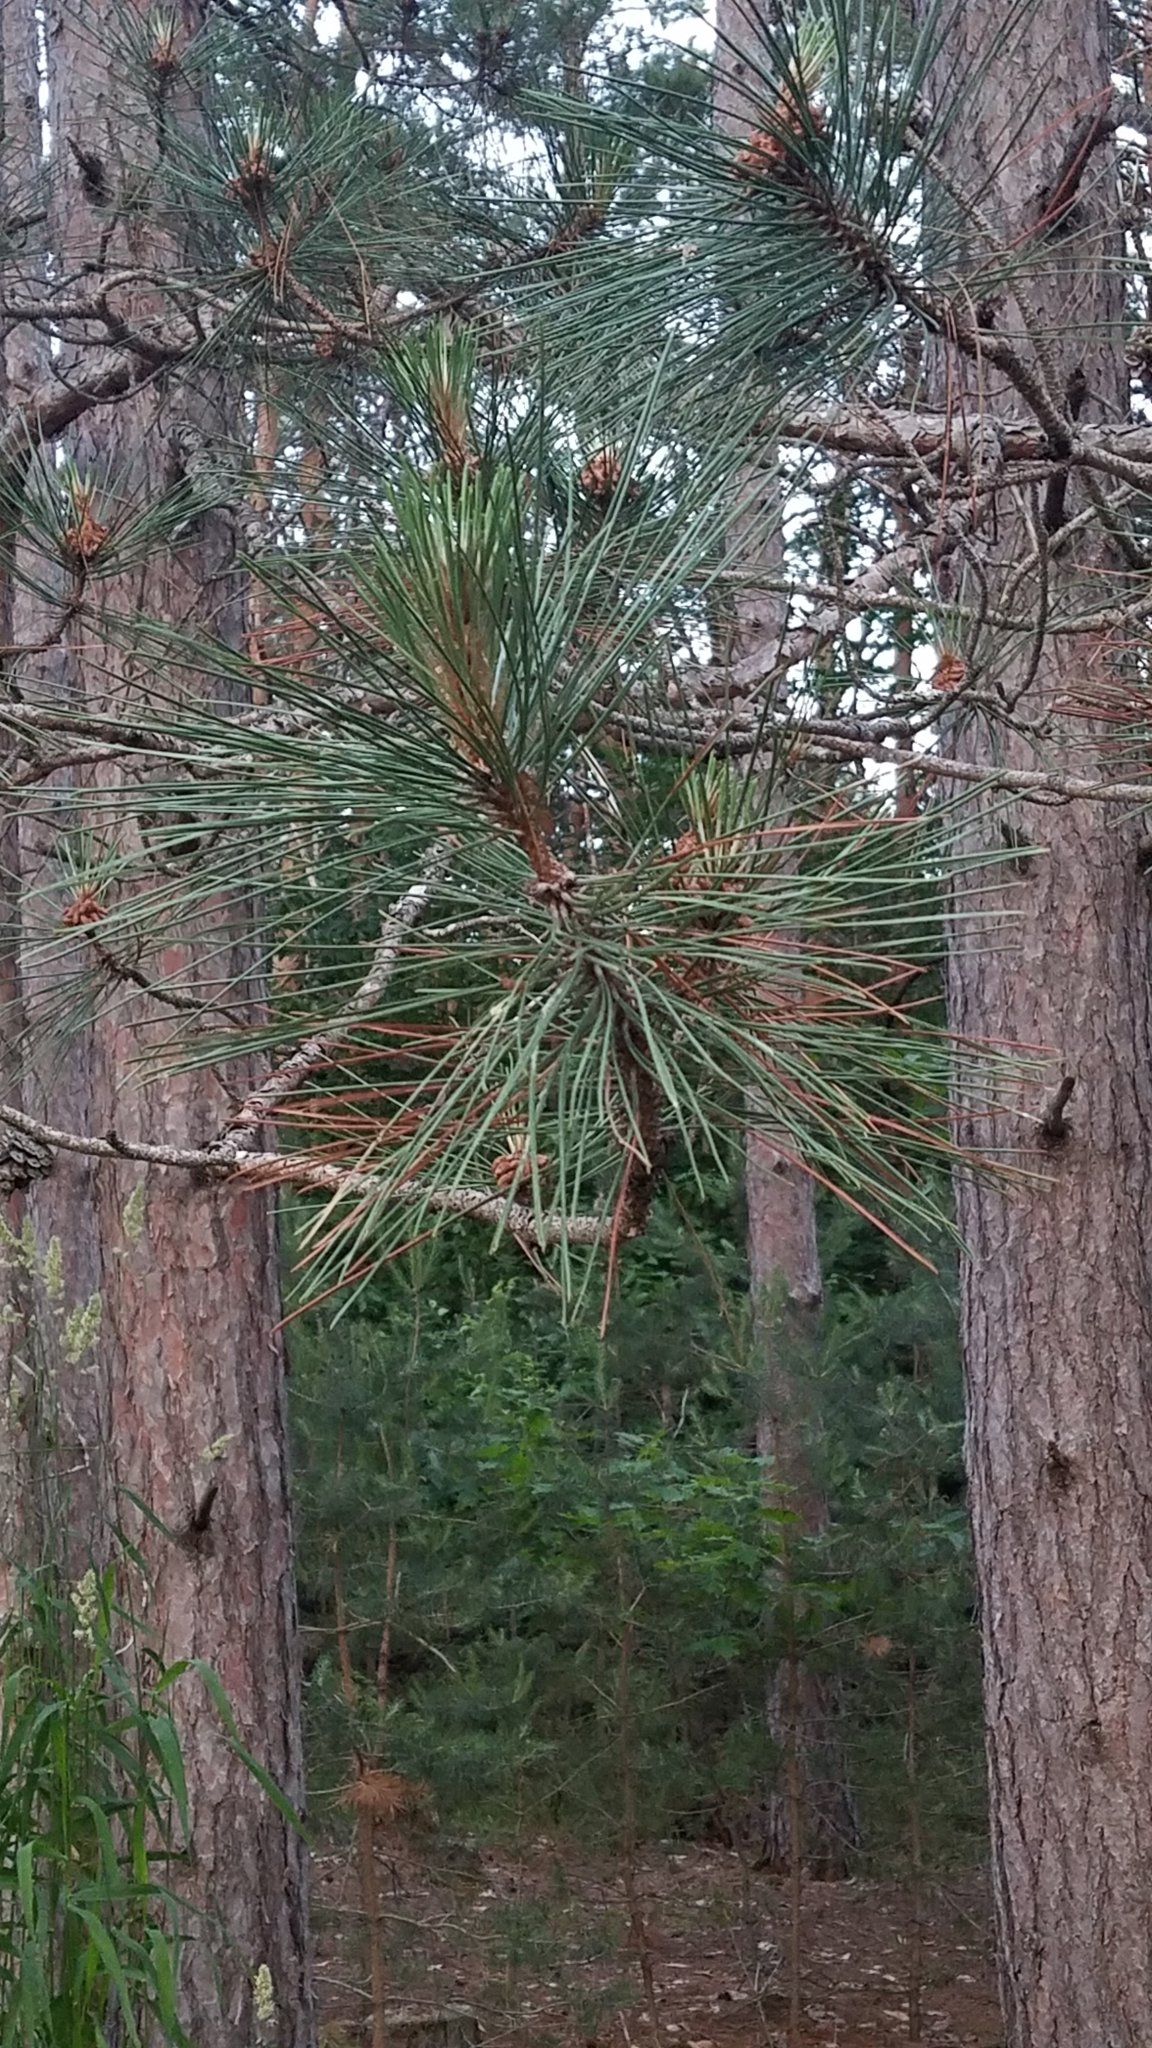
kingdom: Plantae
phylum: Tracheophyta
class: Pinopsida
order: Pinales
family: Pinaceae
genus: Pinus
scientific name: Pinus resinosa
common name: Norway pine
